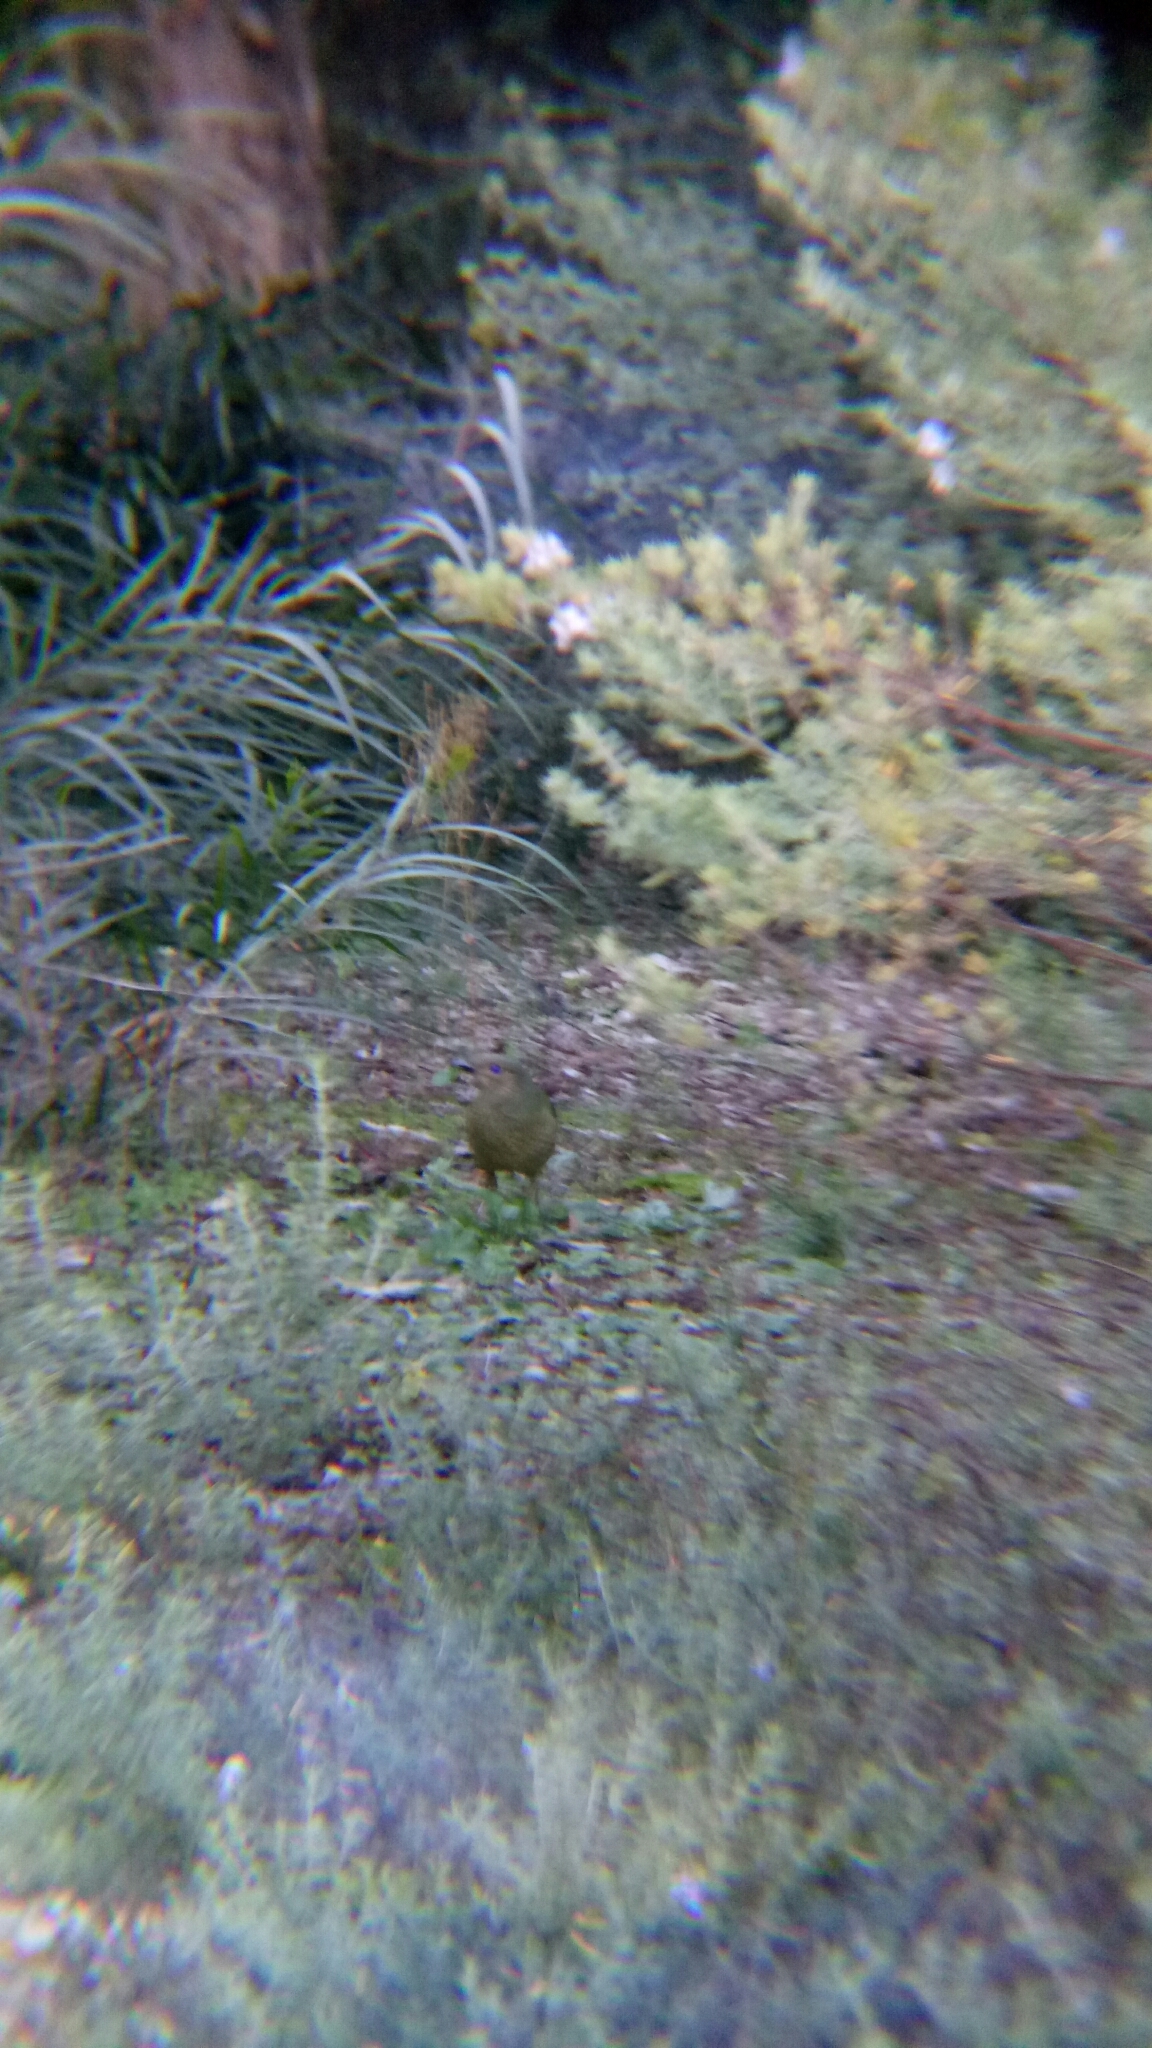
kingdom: Animalia
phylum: Chordata
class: Aves
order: Passeriformes
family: Ptilonorhynchidae
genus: Ptilonorhynchus
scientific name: Ptilonorhynchus violaceus
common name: Satin bowerbird
